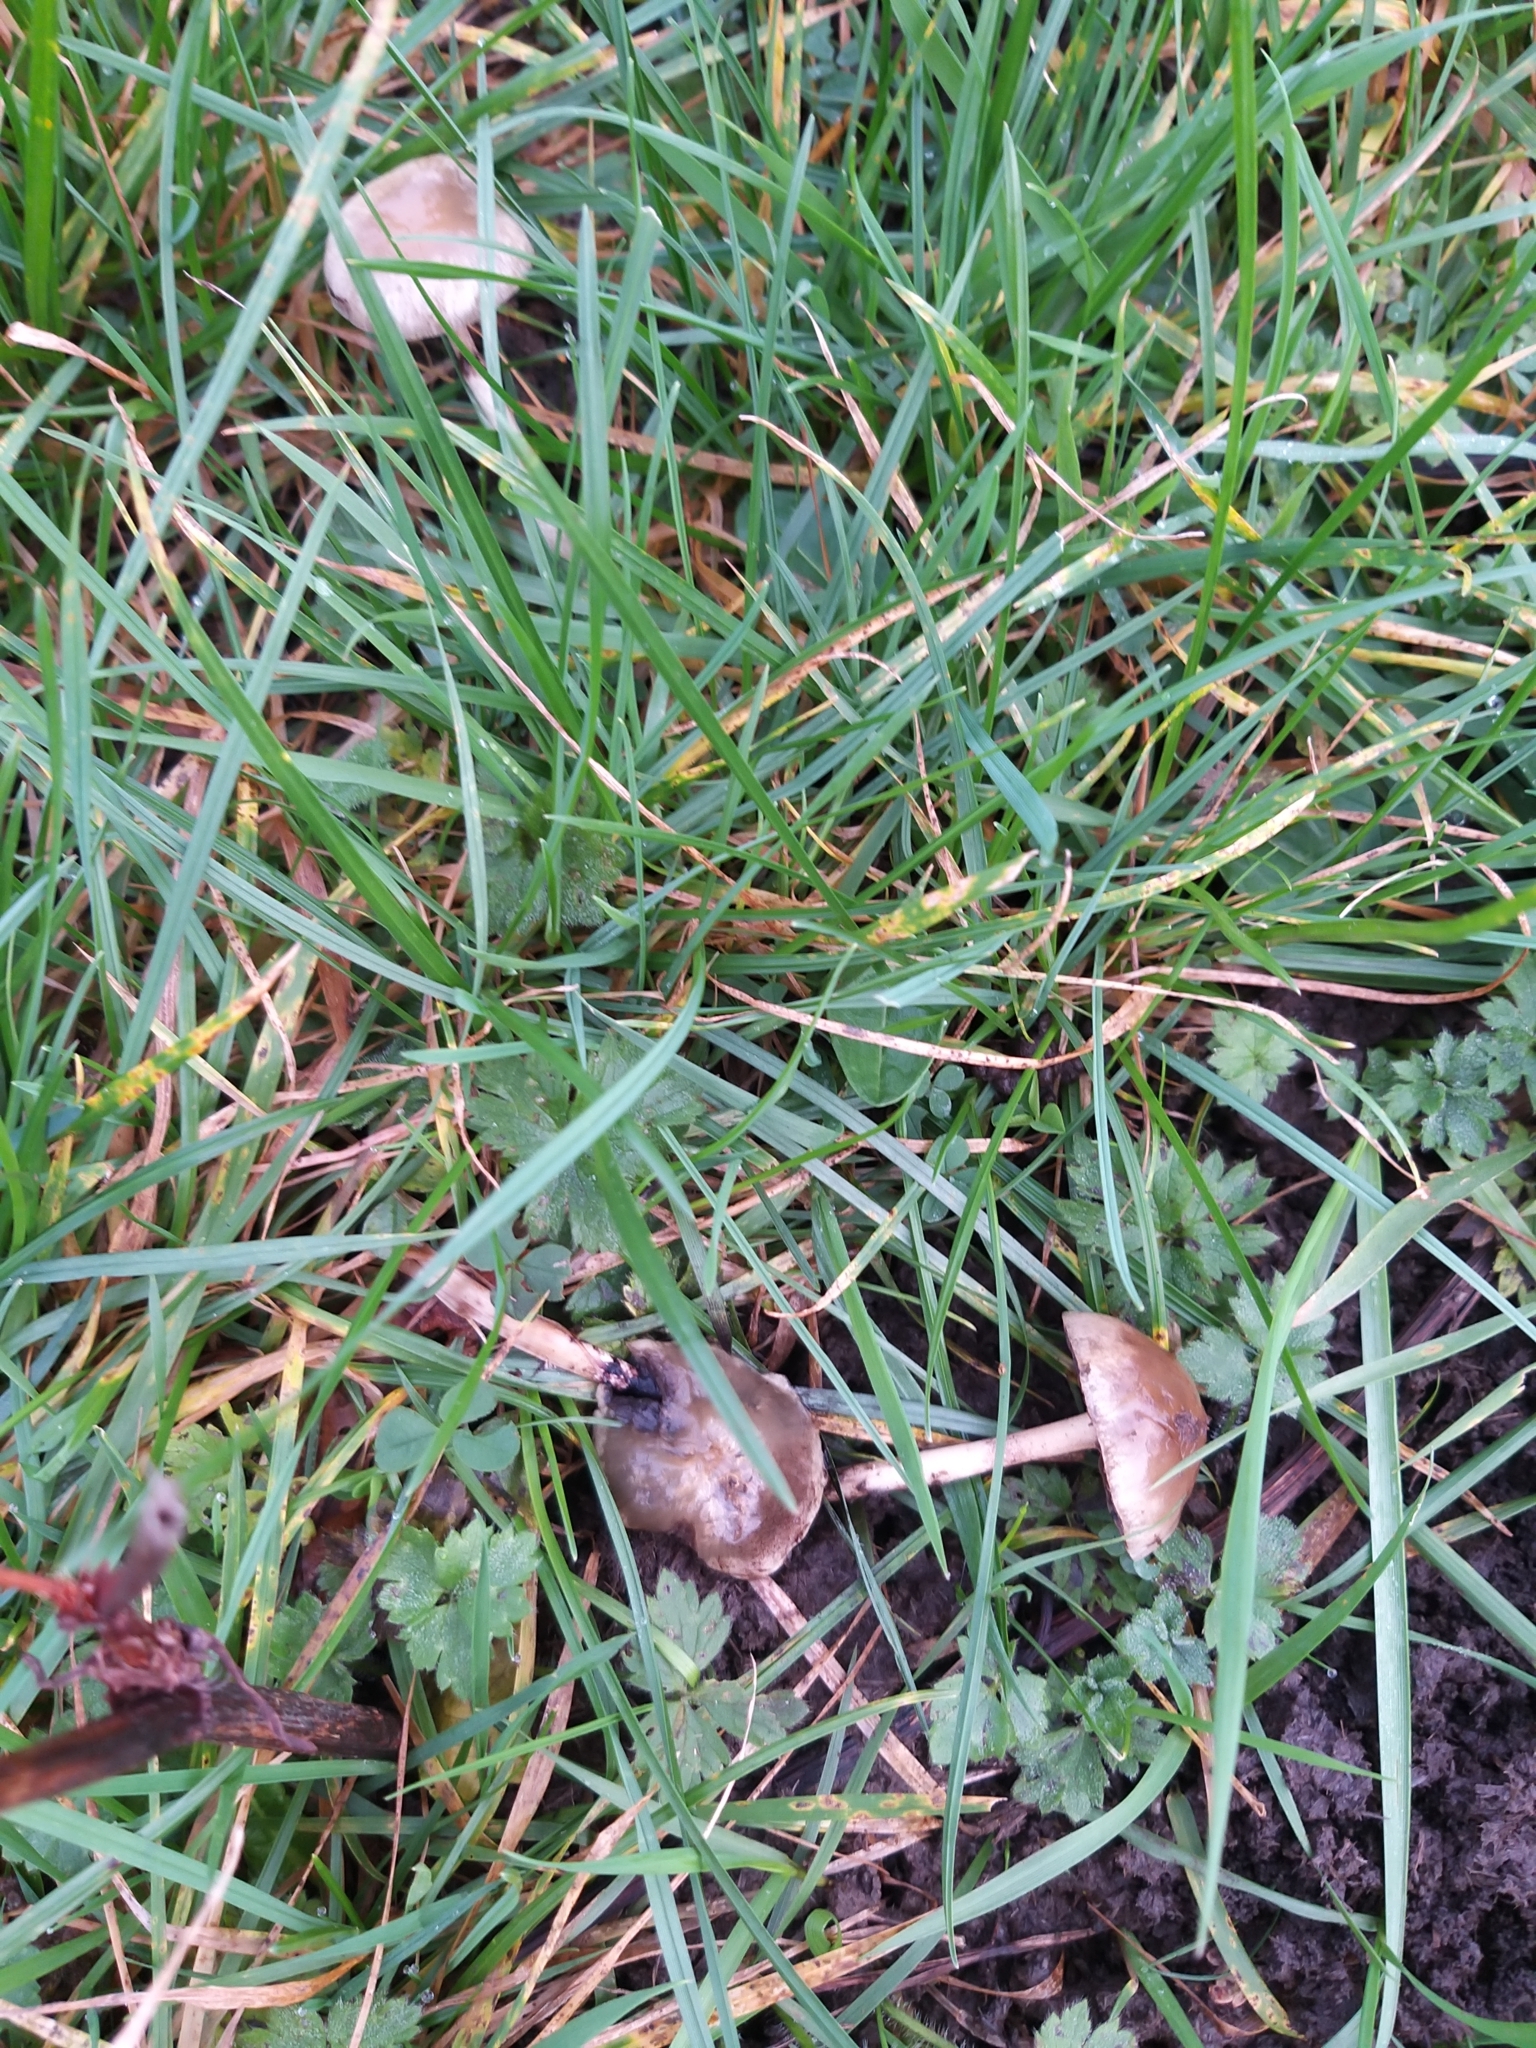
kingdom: Fungi
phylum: Basidiomycota
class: Agaricomycetes
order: Agaricales
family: Strophariaceae
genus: Protostropharia
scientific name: Protostropharia semiglobata
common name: Dung roundhead
